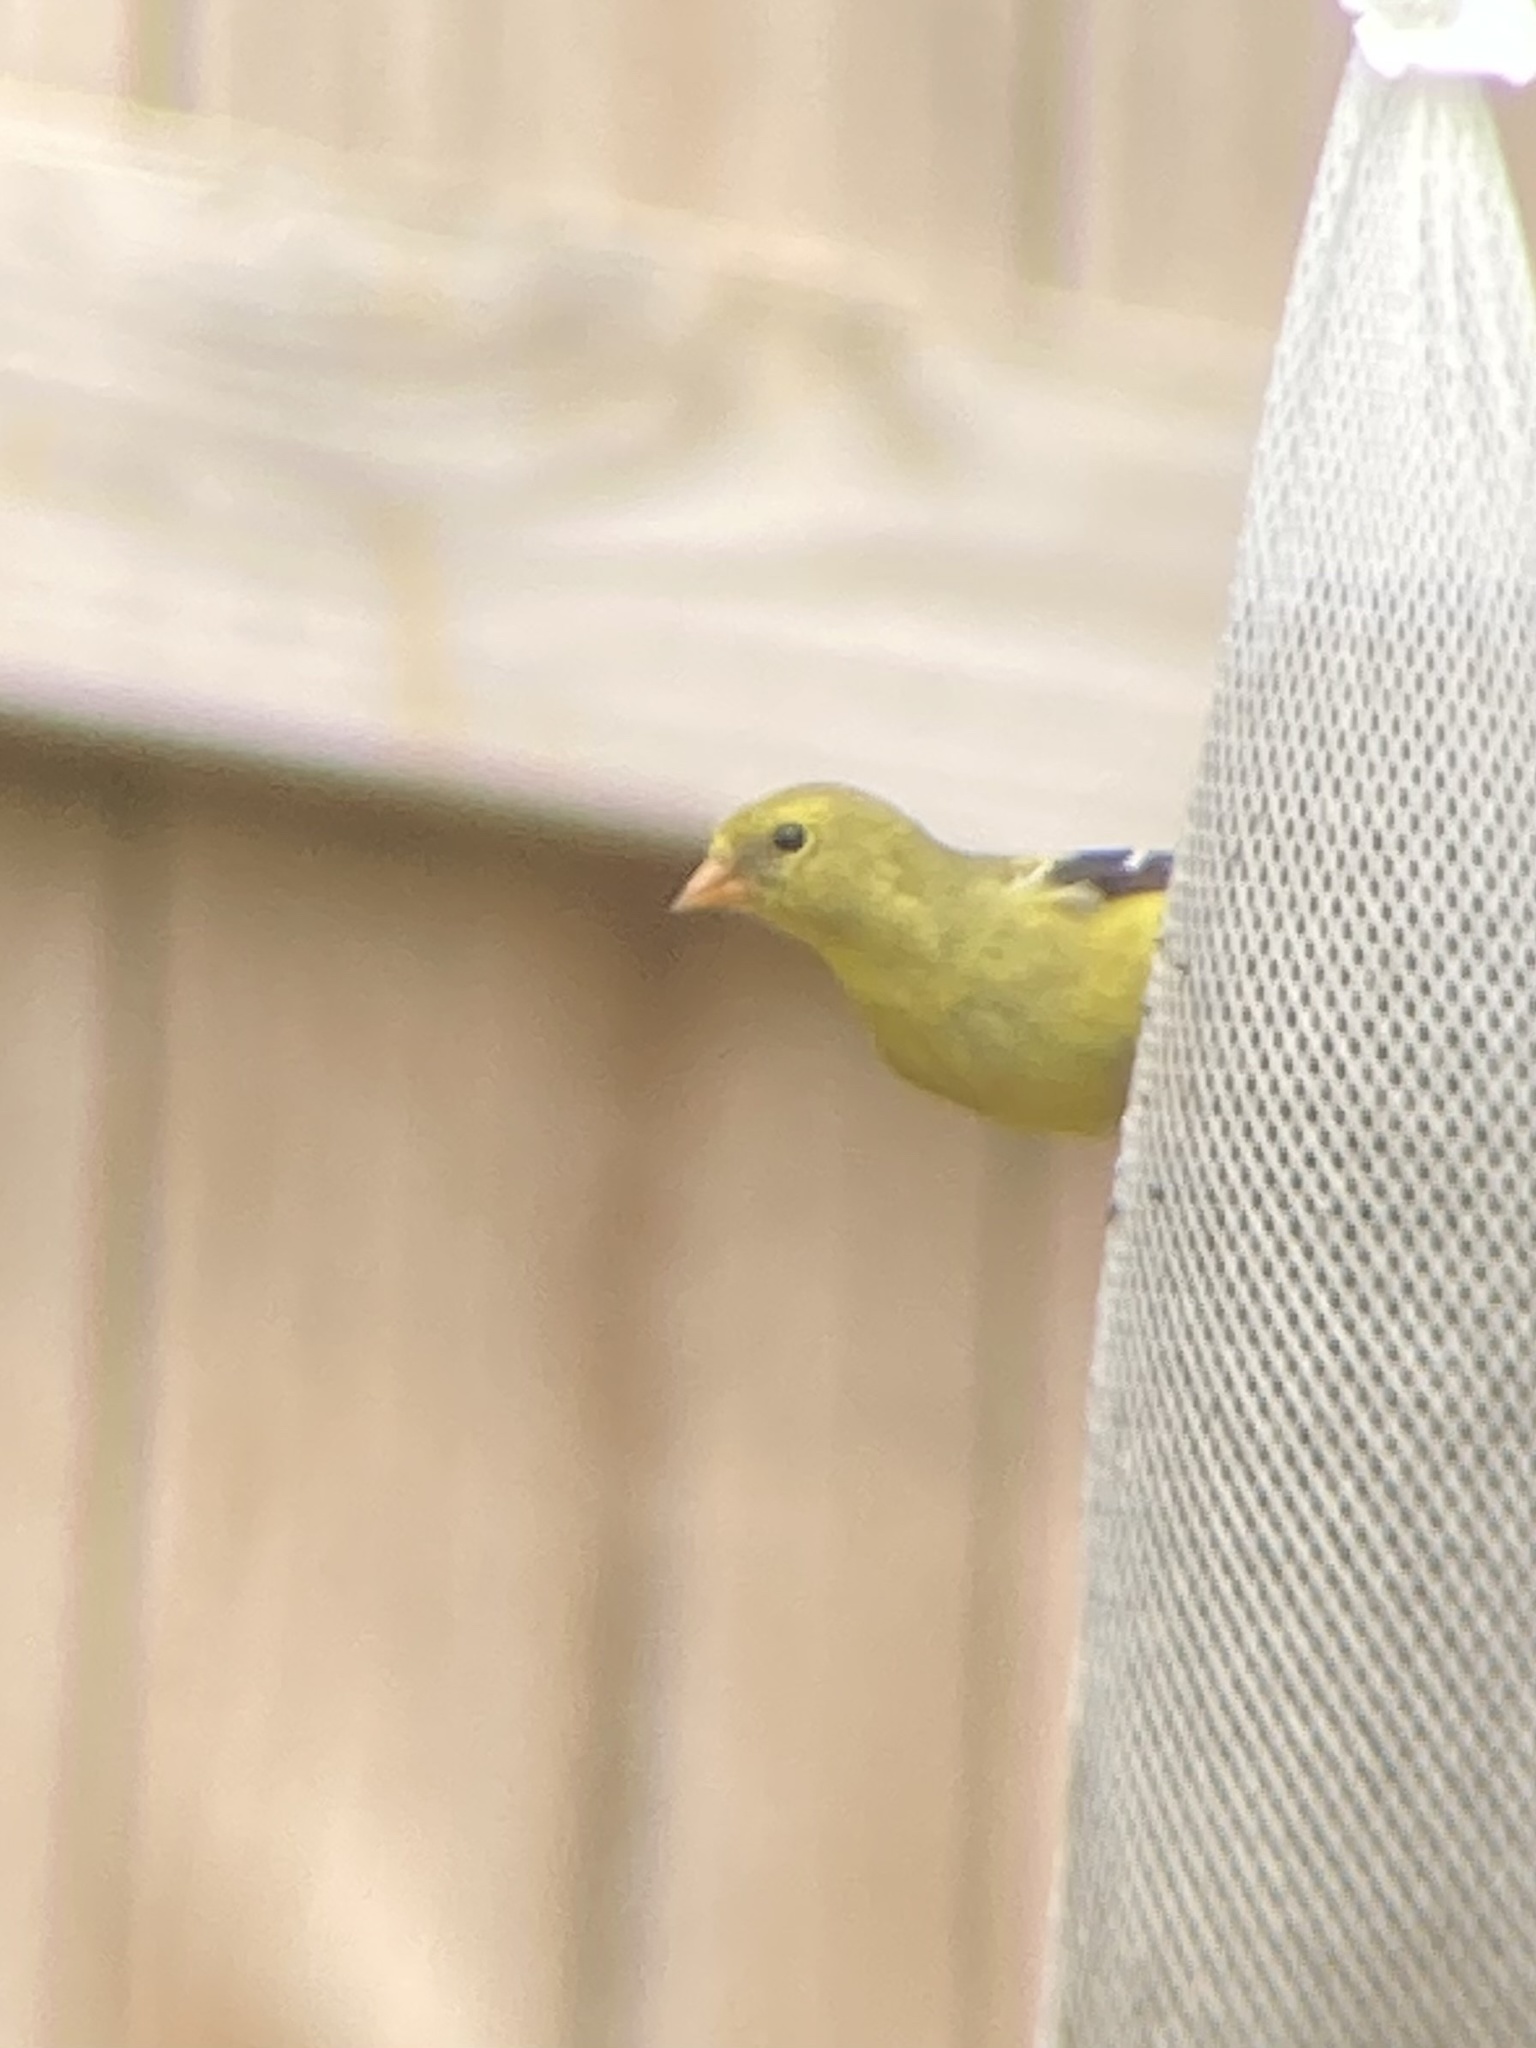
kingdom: Animalia
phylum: Chordata
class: Aves
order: Passeriformes
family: Fringillidae
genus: Spinus
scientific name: Spinus tristis
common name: American goldfinch
